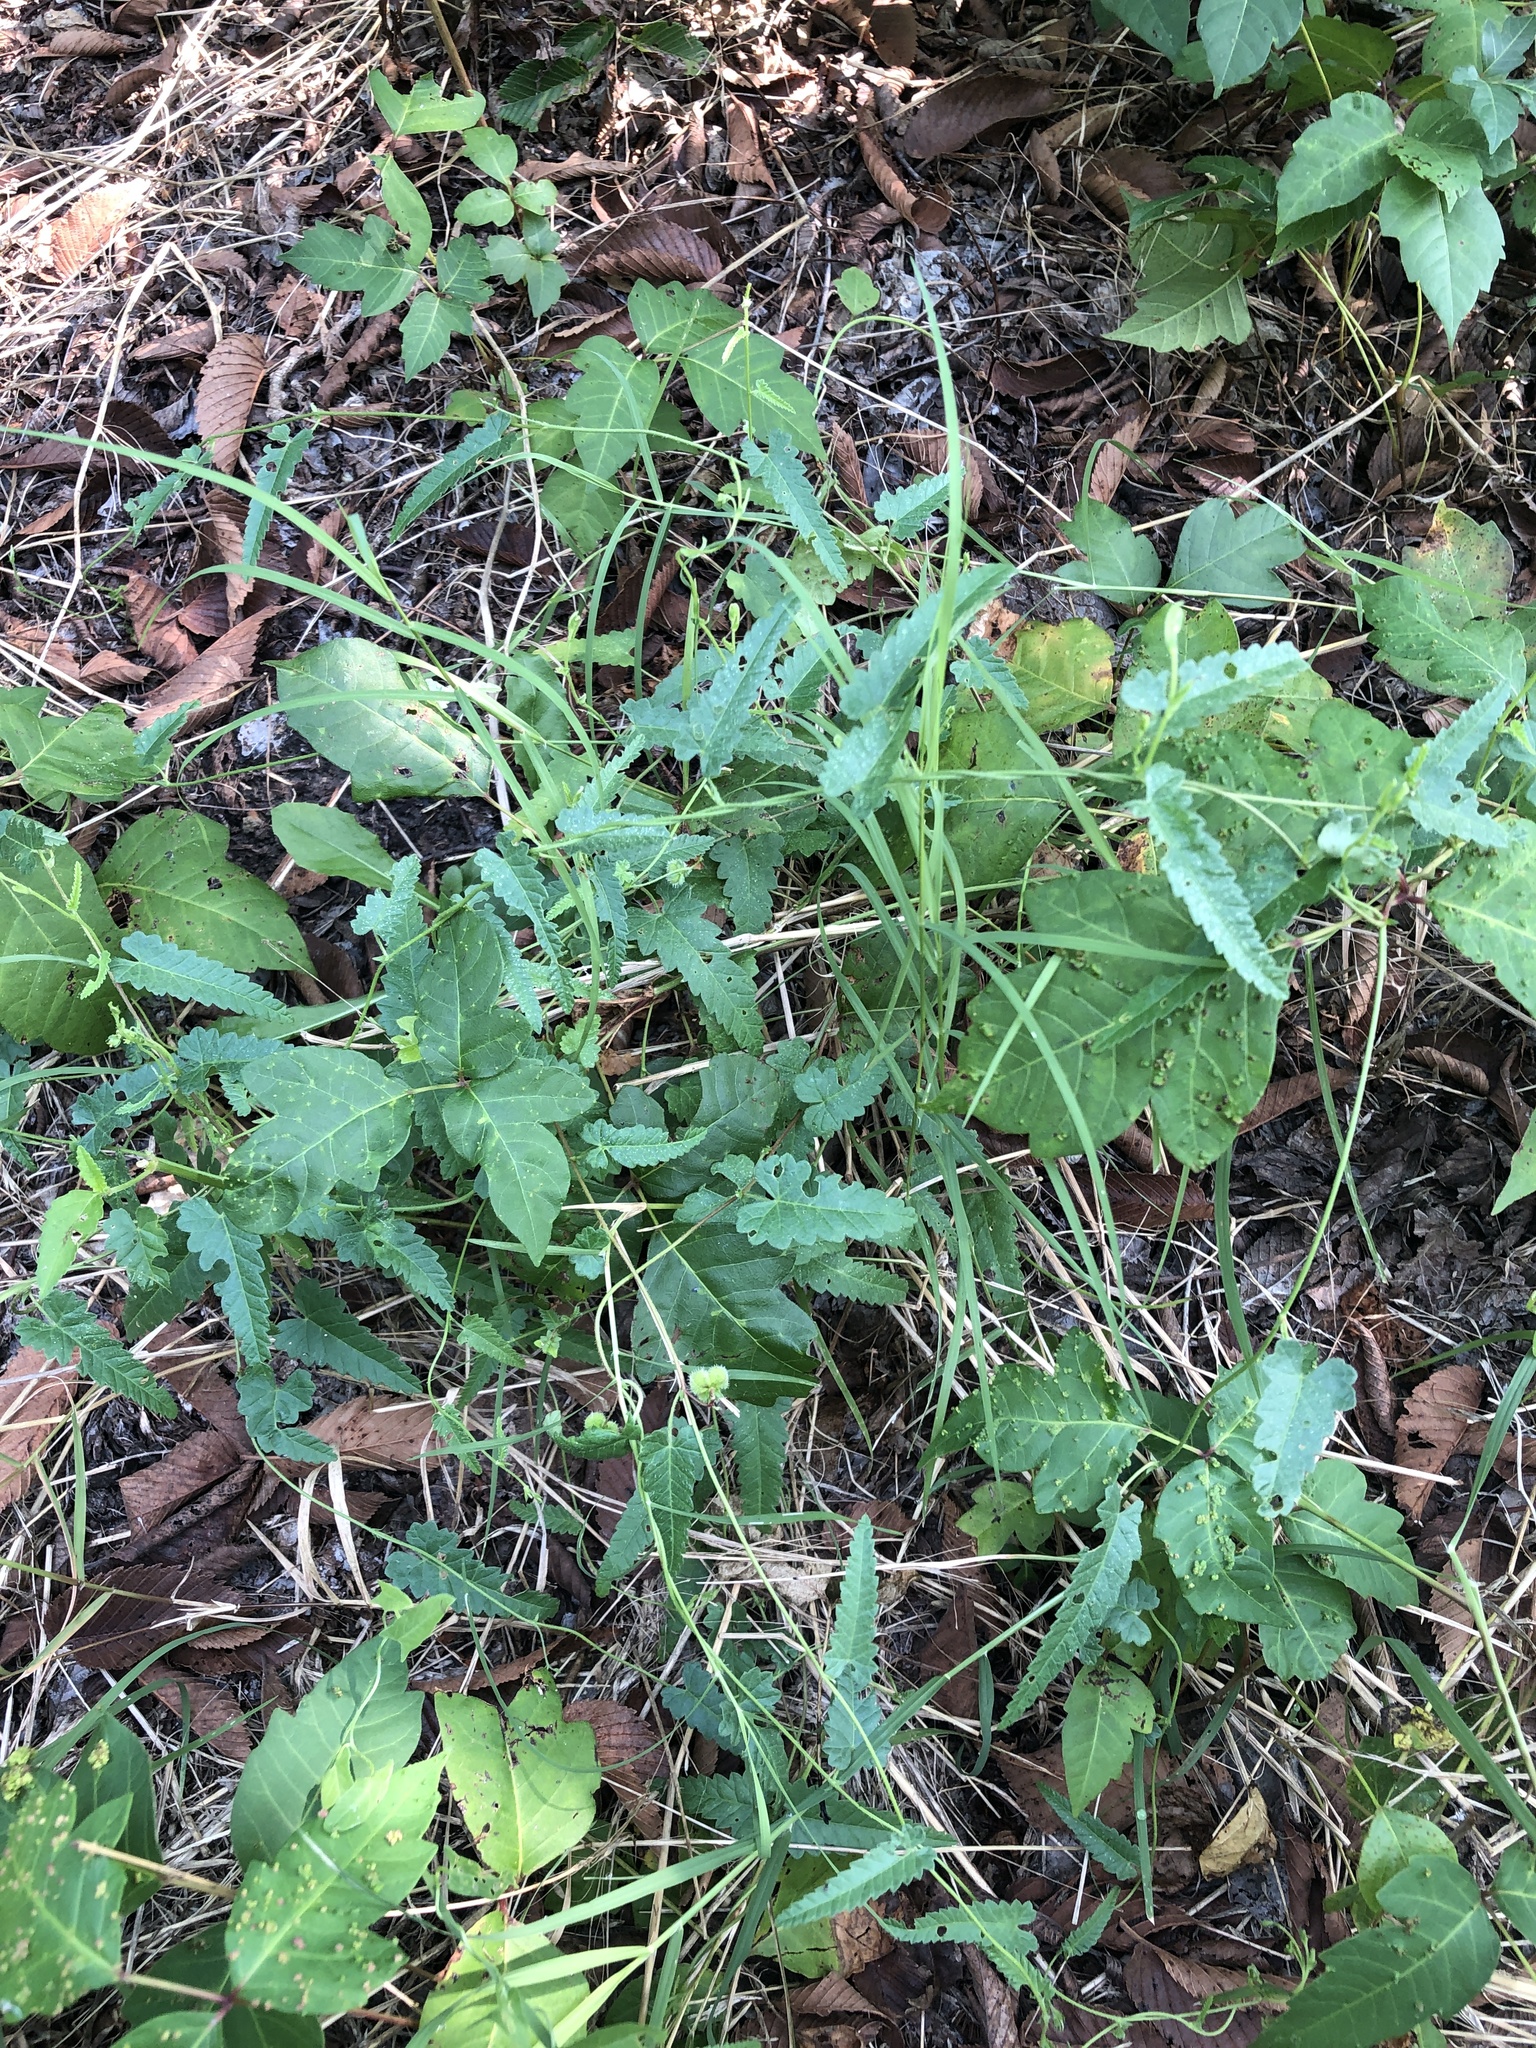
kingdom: Plantae
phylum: Tracheophyta
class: Magnoliopsida
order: Malpighiales
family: Euphorbiaceae
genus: Tragia
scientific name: Tragia urticifolia
